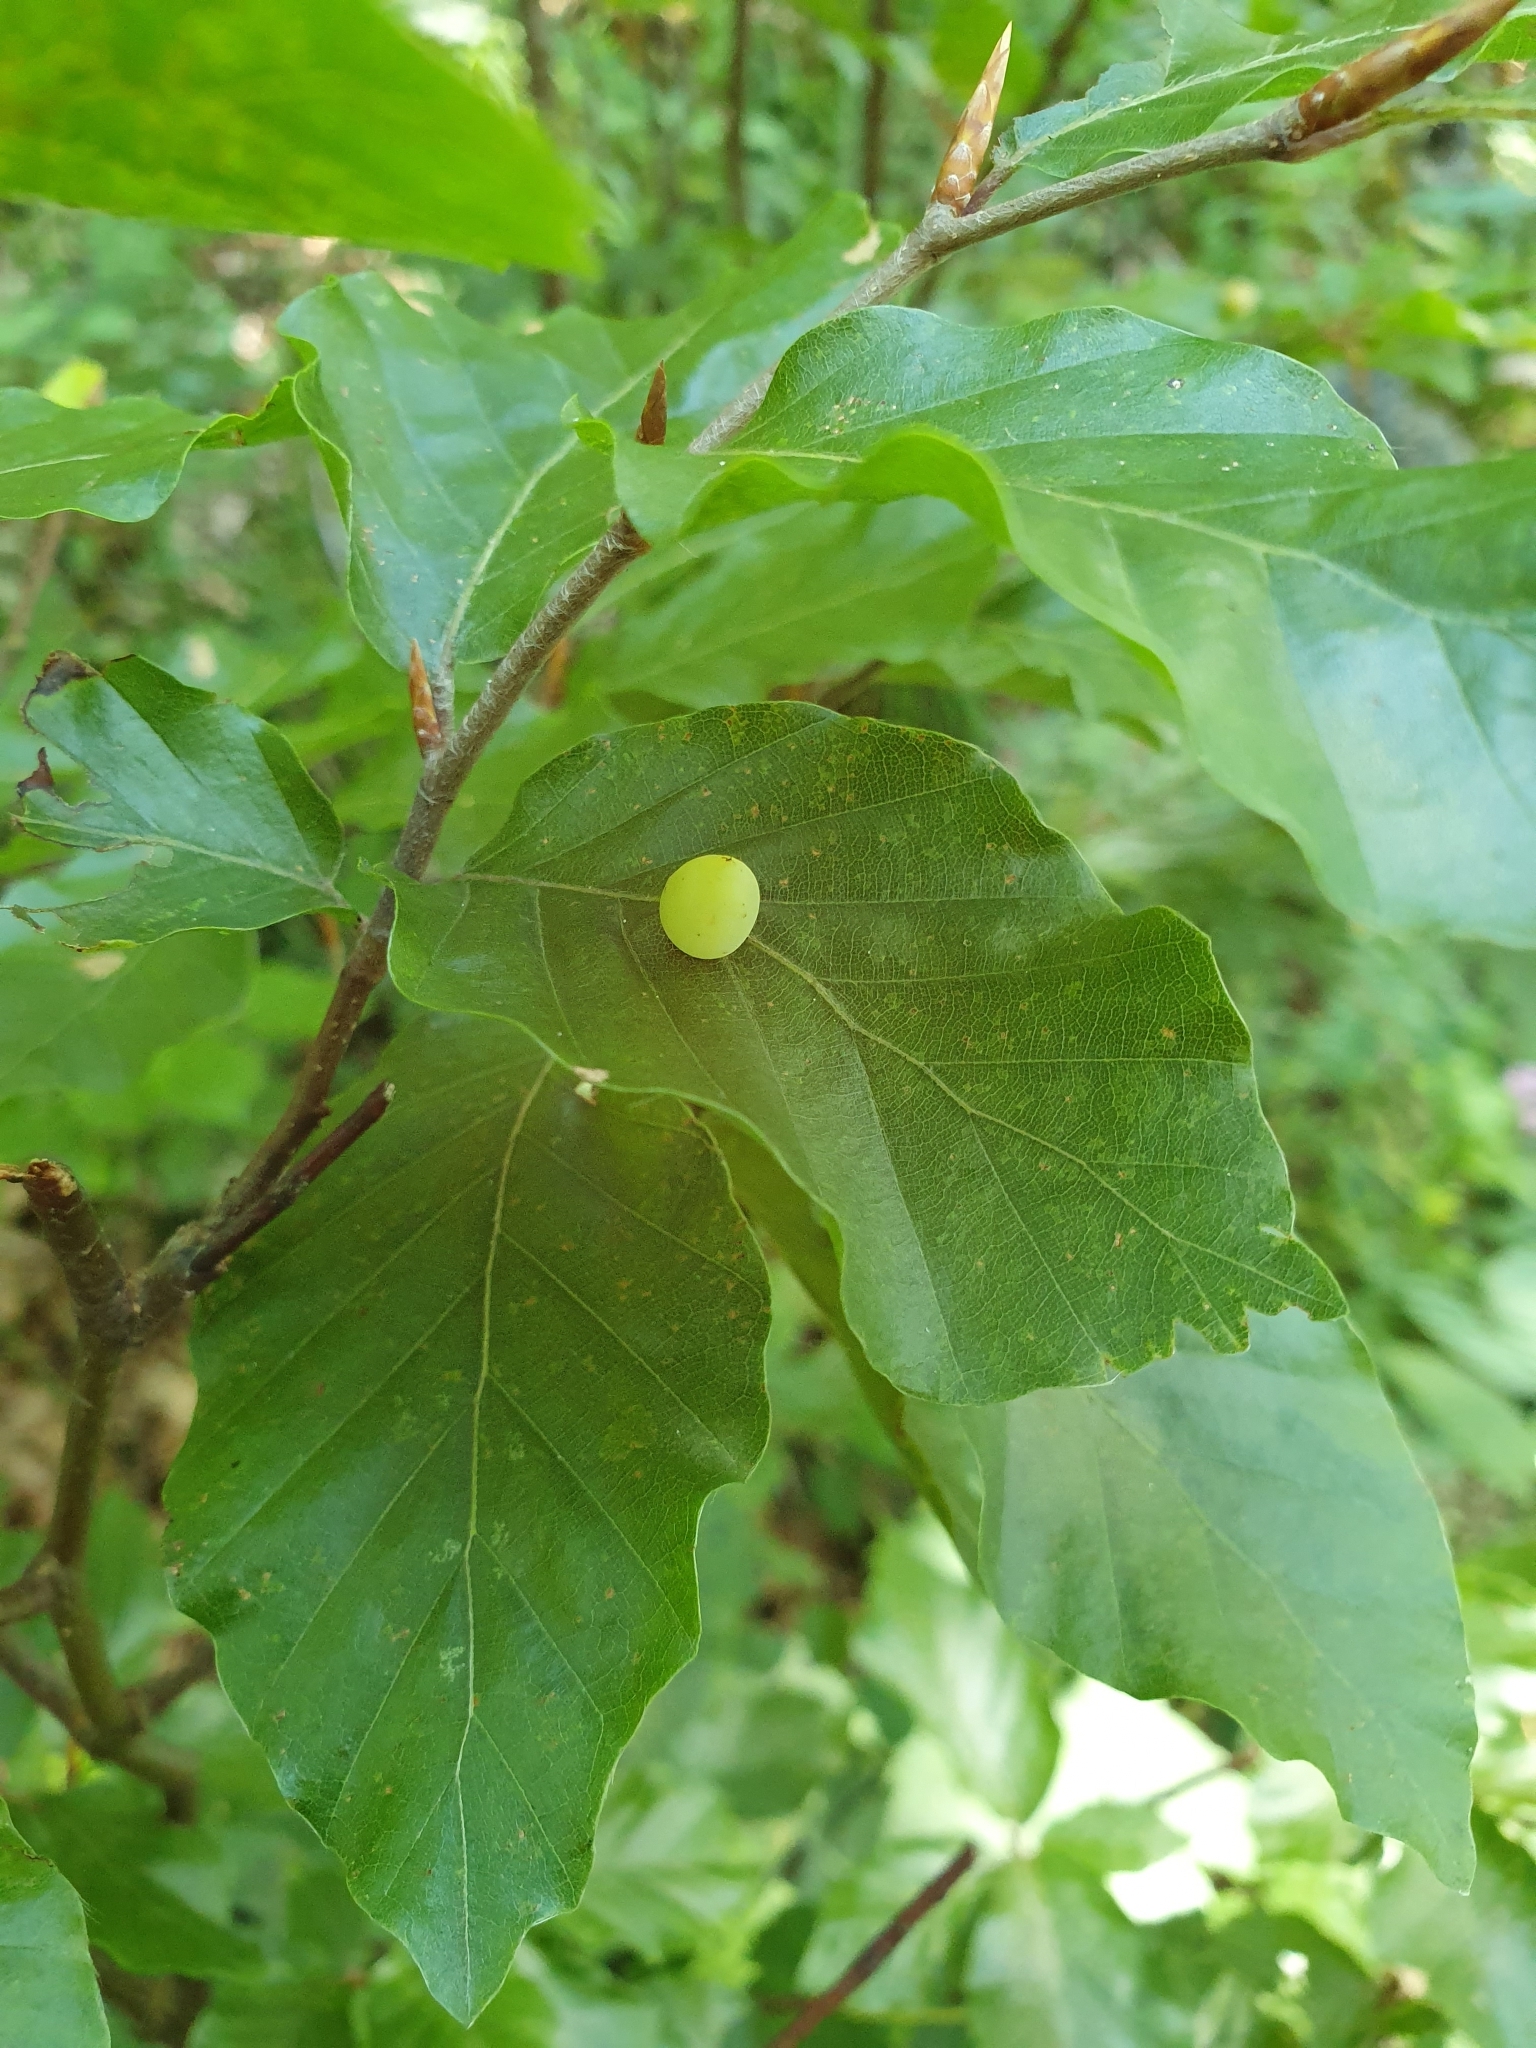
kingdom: Animalia
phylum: Arthropoda
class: Insecta
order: Diptera
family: Cecidomyiidae
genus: Mikiola
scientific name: Mikiola fagi
